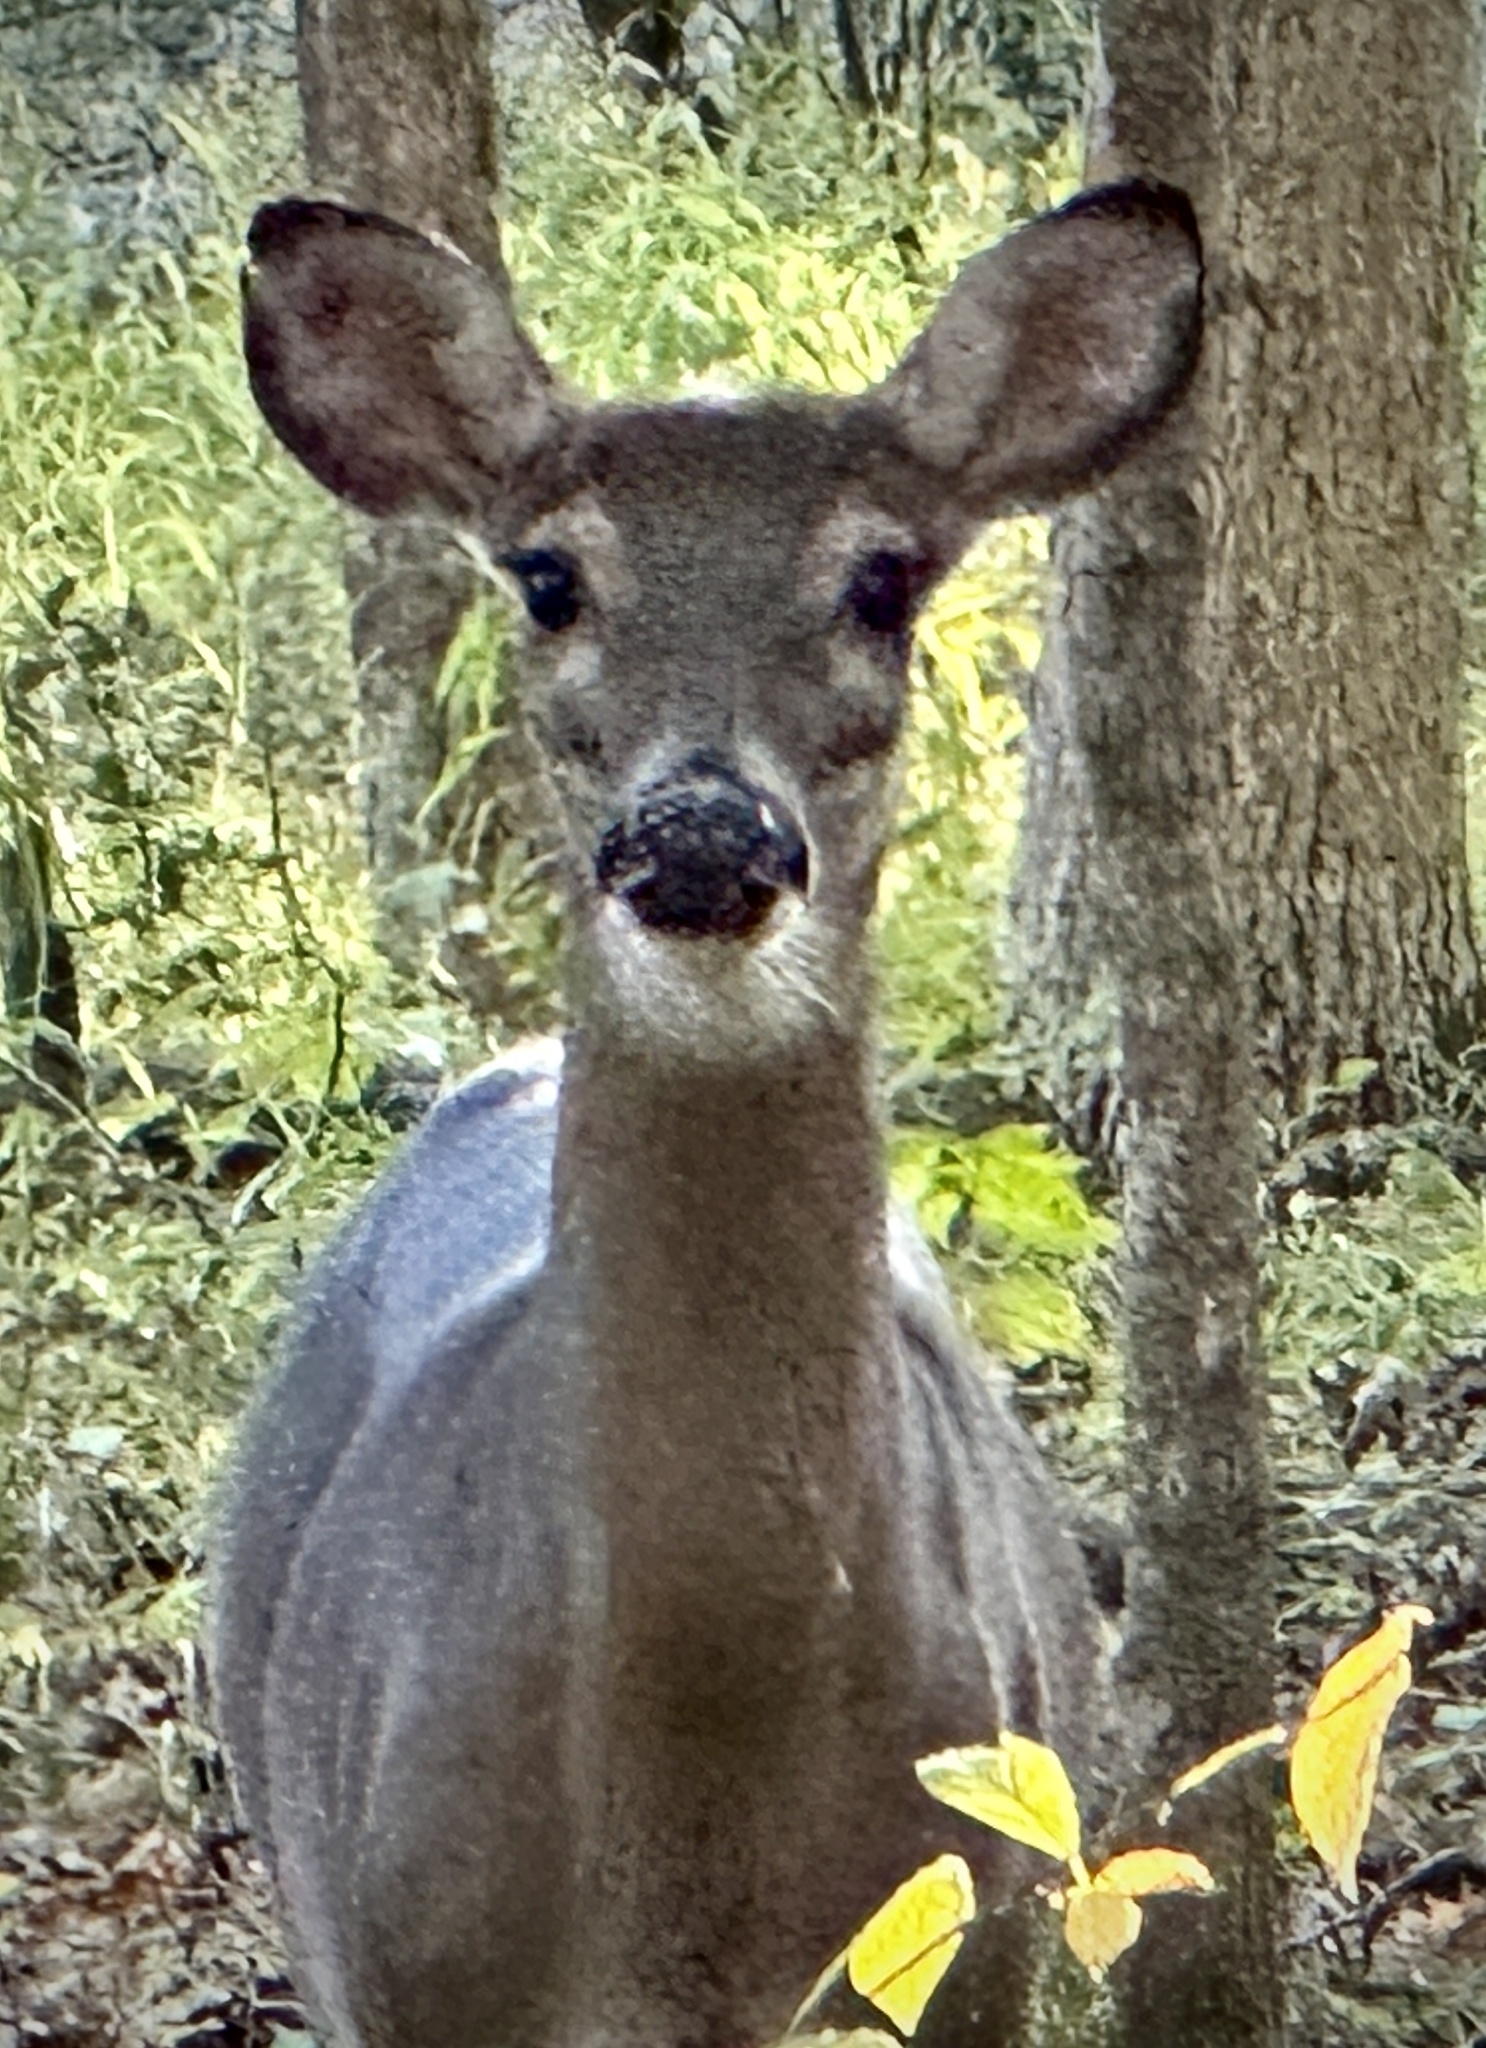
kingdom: Animalia
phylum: Chordata
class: Mammalia
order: Artiodactyla
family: Cervidae
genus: Odocoileus
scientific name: Odocoileus virginianus
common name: White-tailed deer
